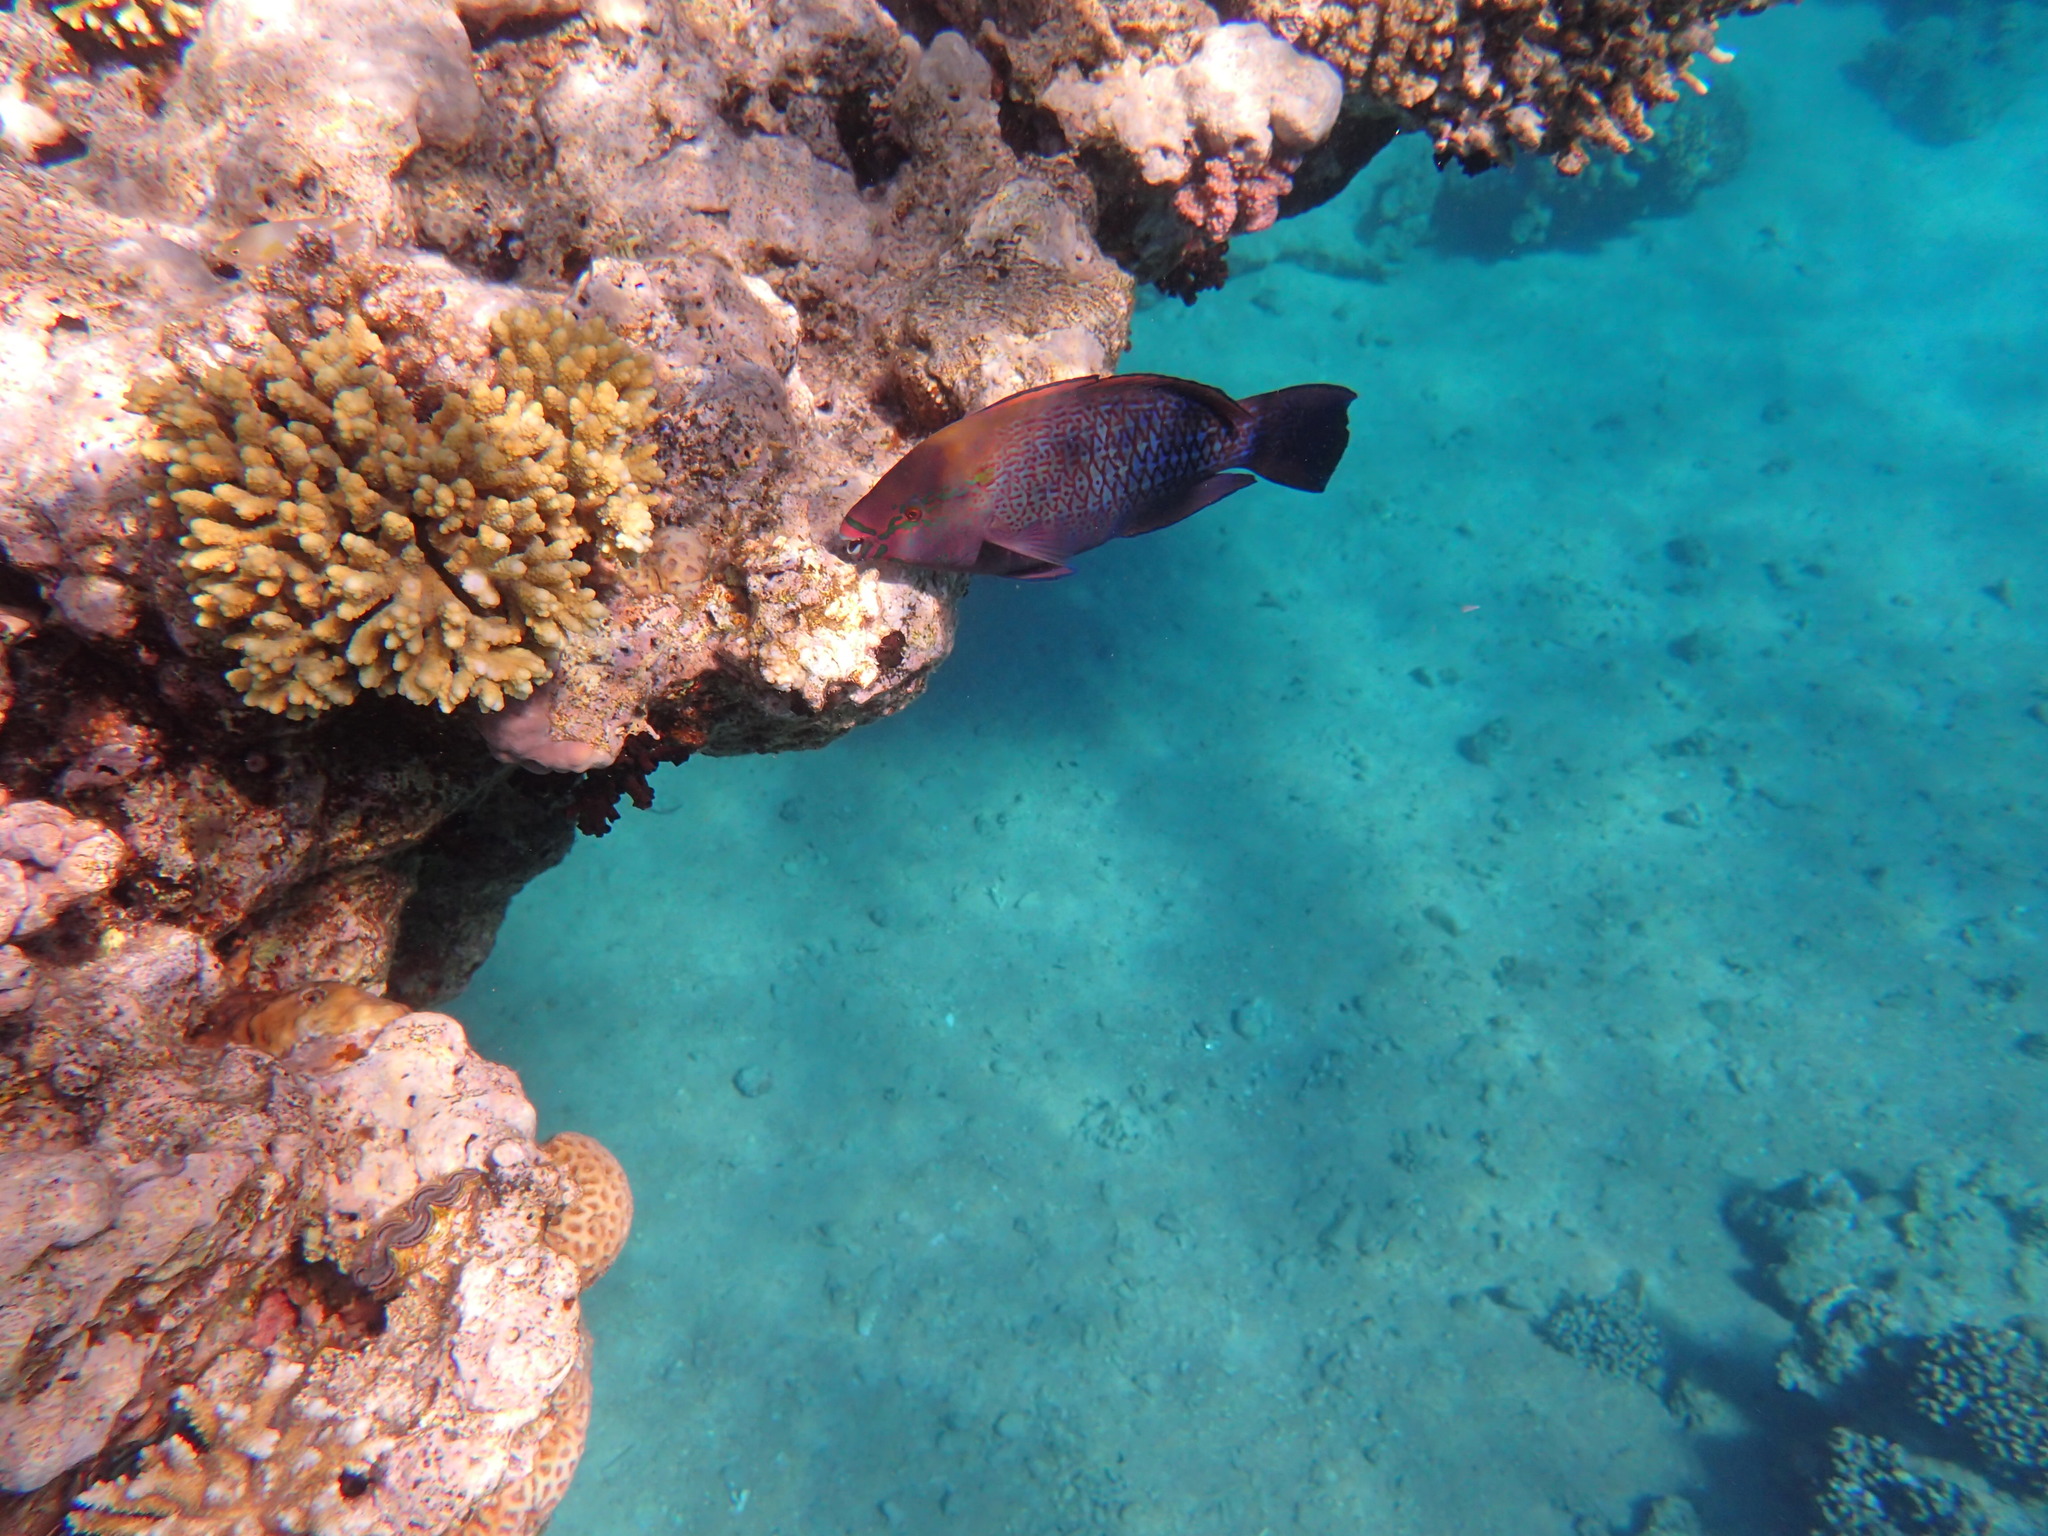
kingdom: Animalia
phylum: Chordata
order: Perciformes
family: Scaridae
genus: Scarus
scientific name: Scarus niger
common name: Dusky parrotfish
